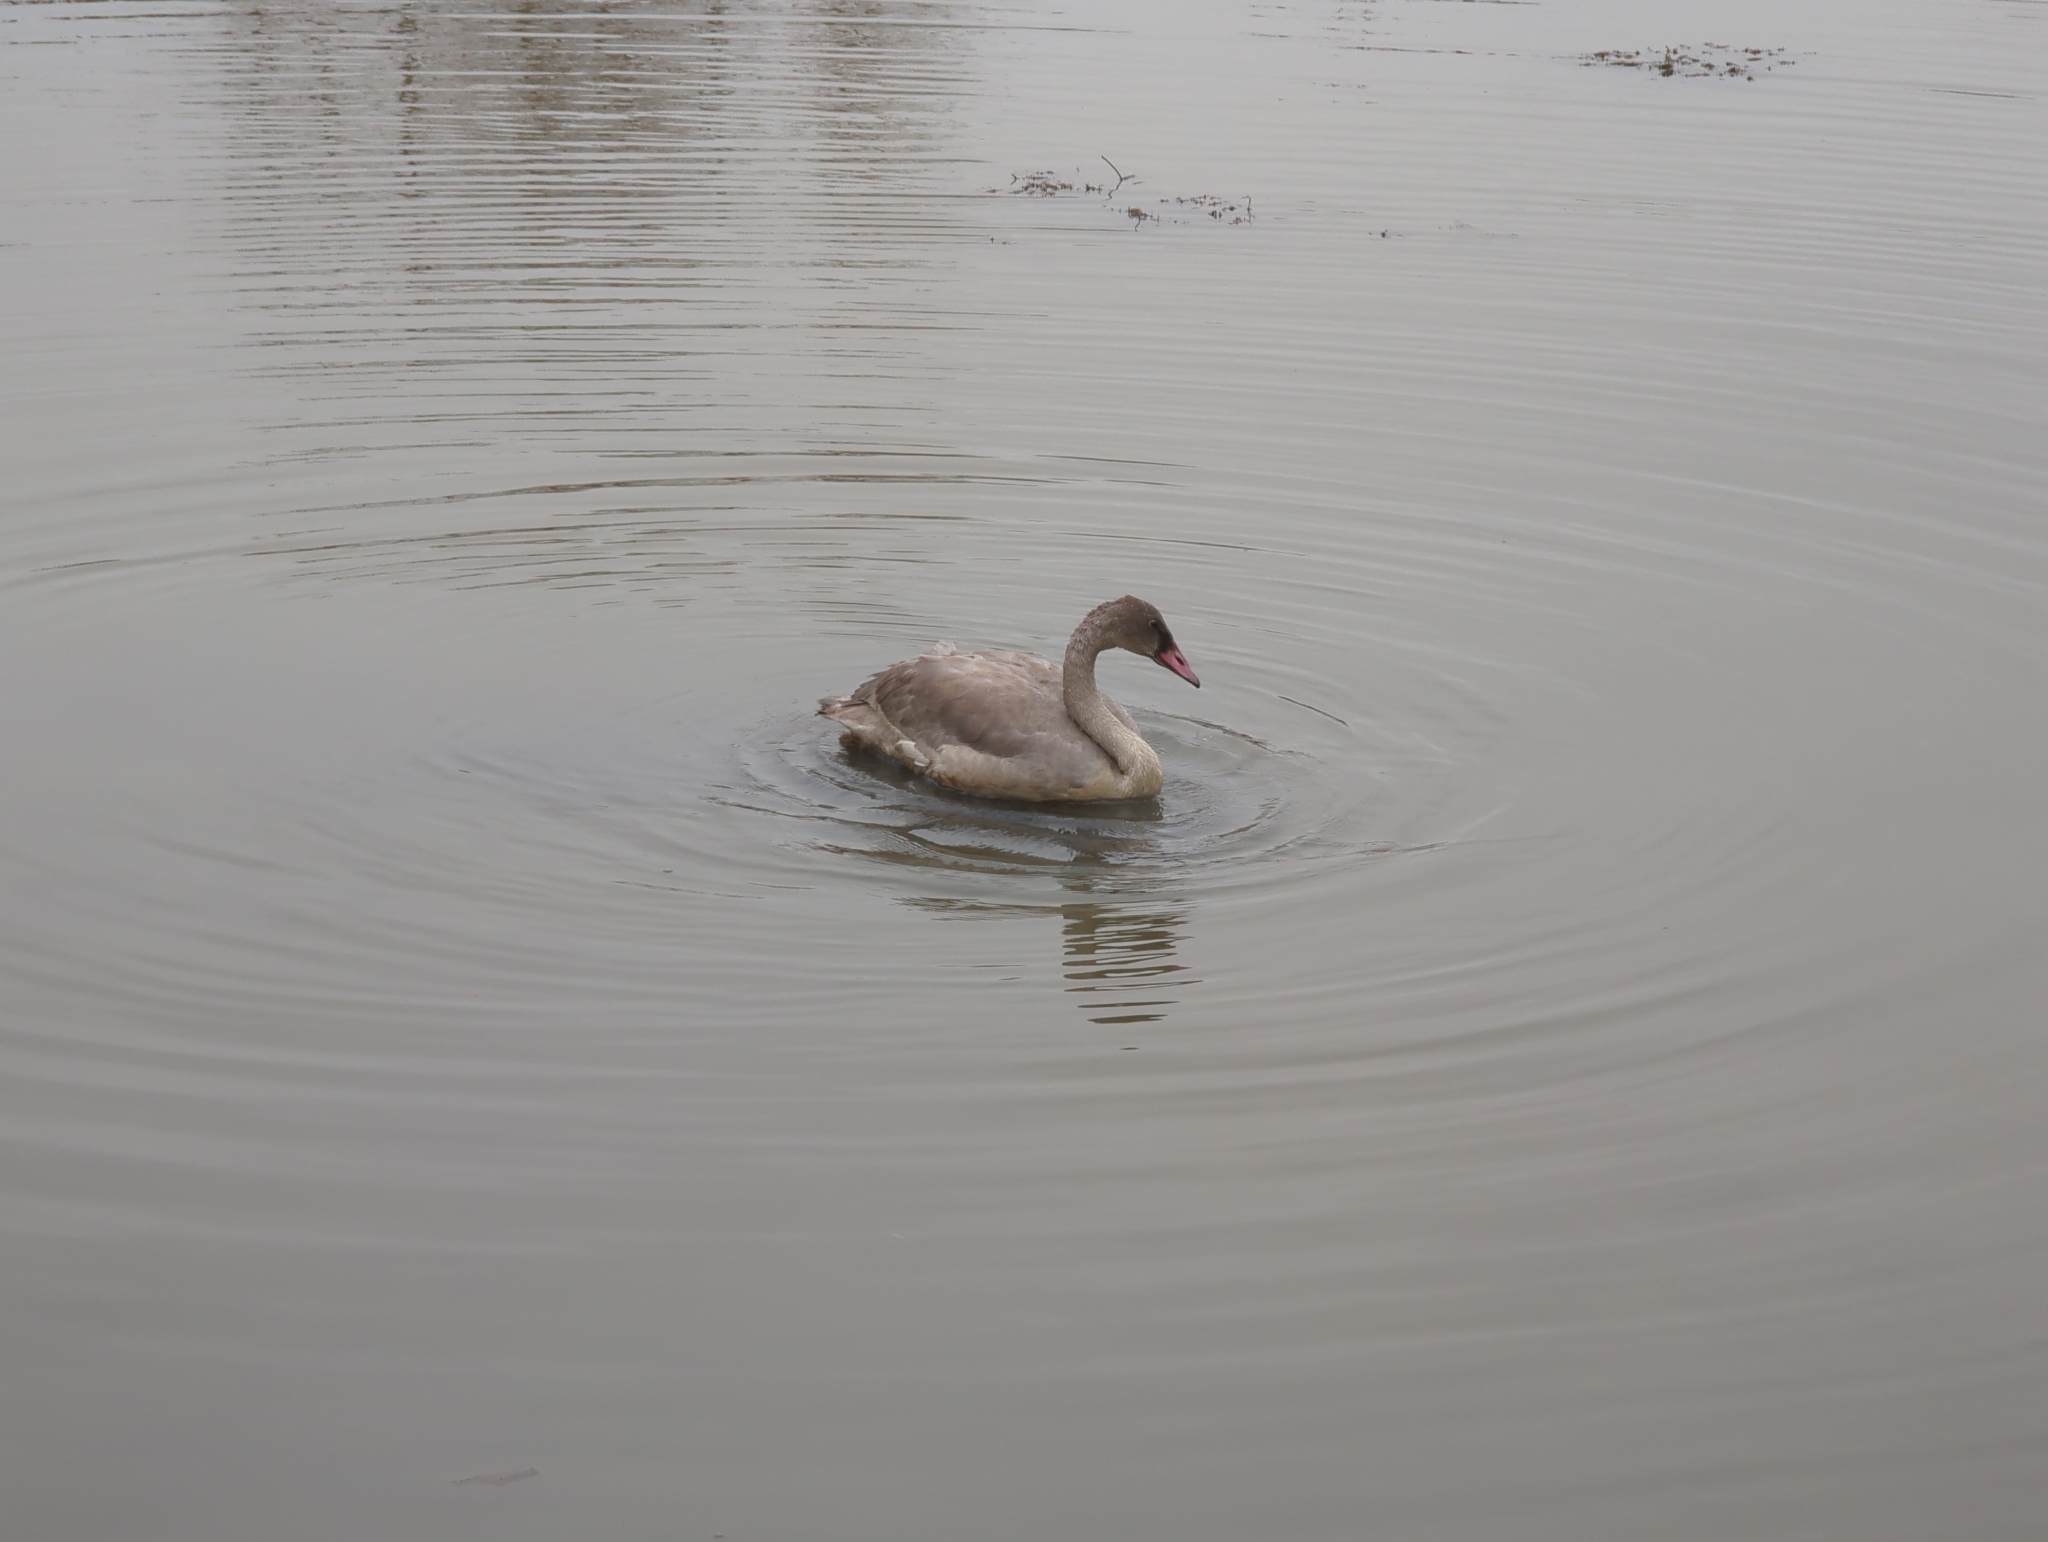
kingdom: Animalia
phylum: Chordata
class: Aves
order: Anseriformes
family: Anatidae
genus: Cygnus
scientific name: Cygnus buccinator
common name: Trumpeter swan
